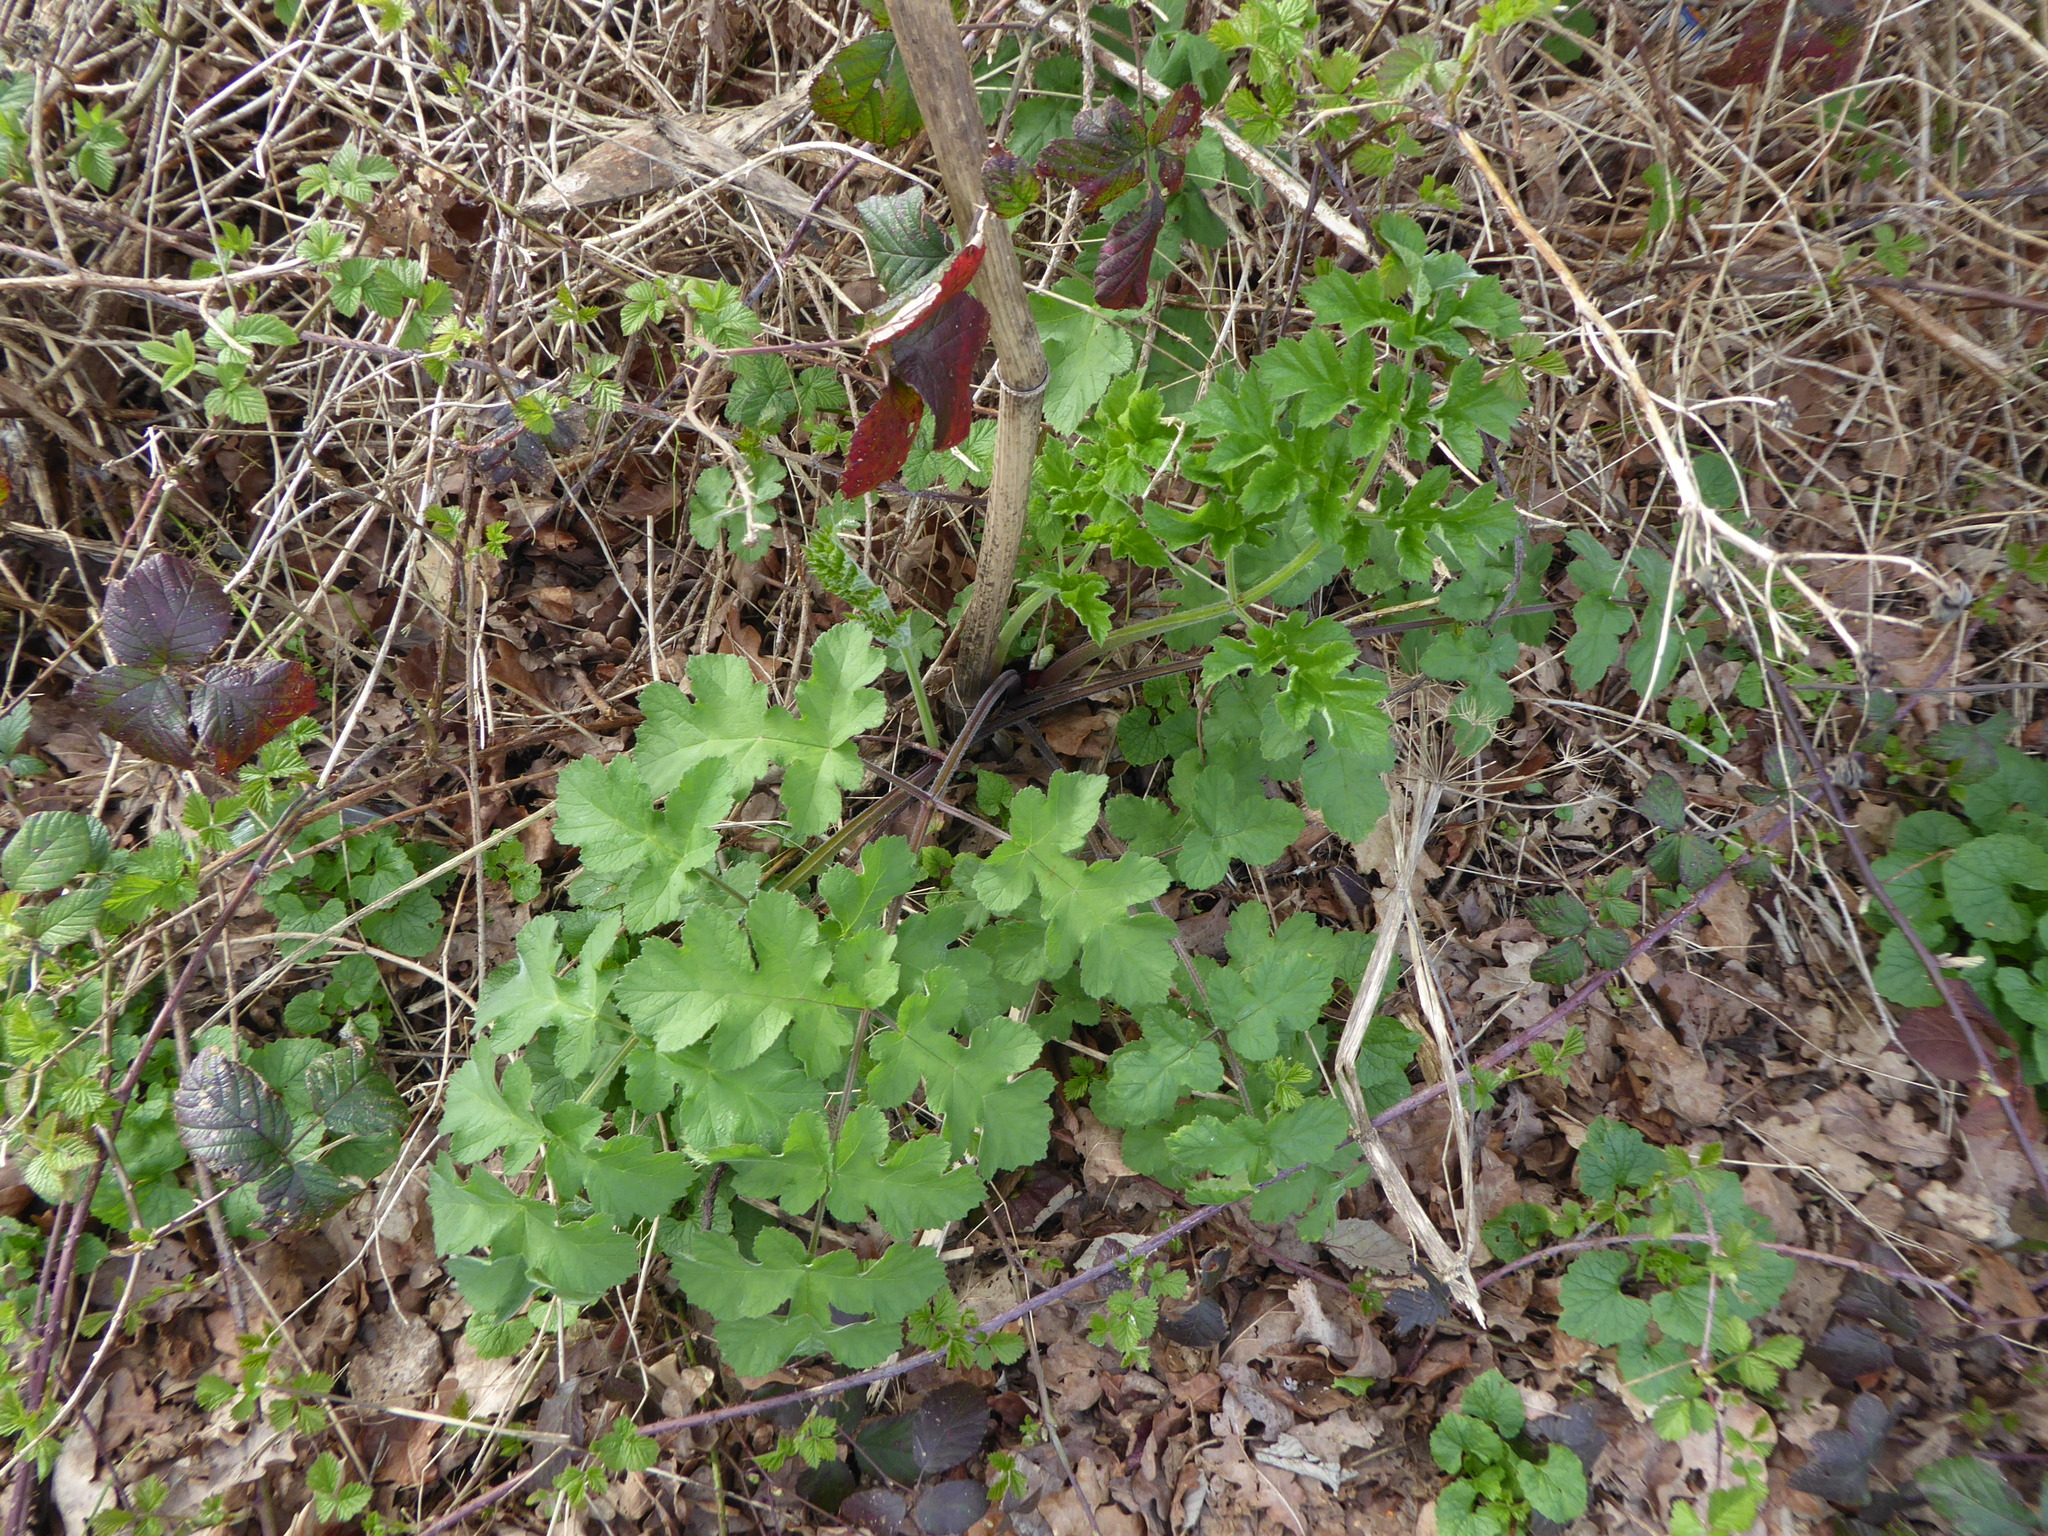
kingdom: Plantae
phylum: Tracheophyta
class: Magnoliopsida
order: Apiales
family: Apiaceae
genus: Heracleum
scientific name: Heracleum sphondylium
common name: Hogweed
